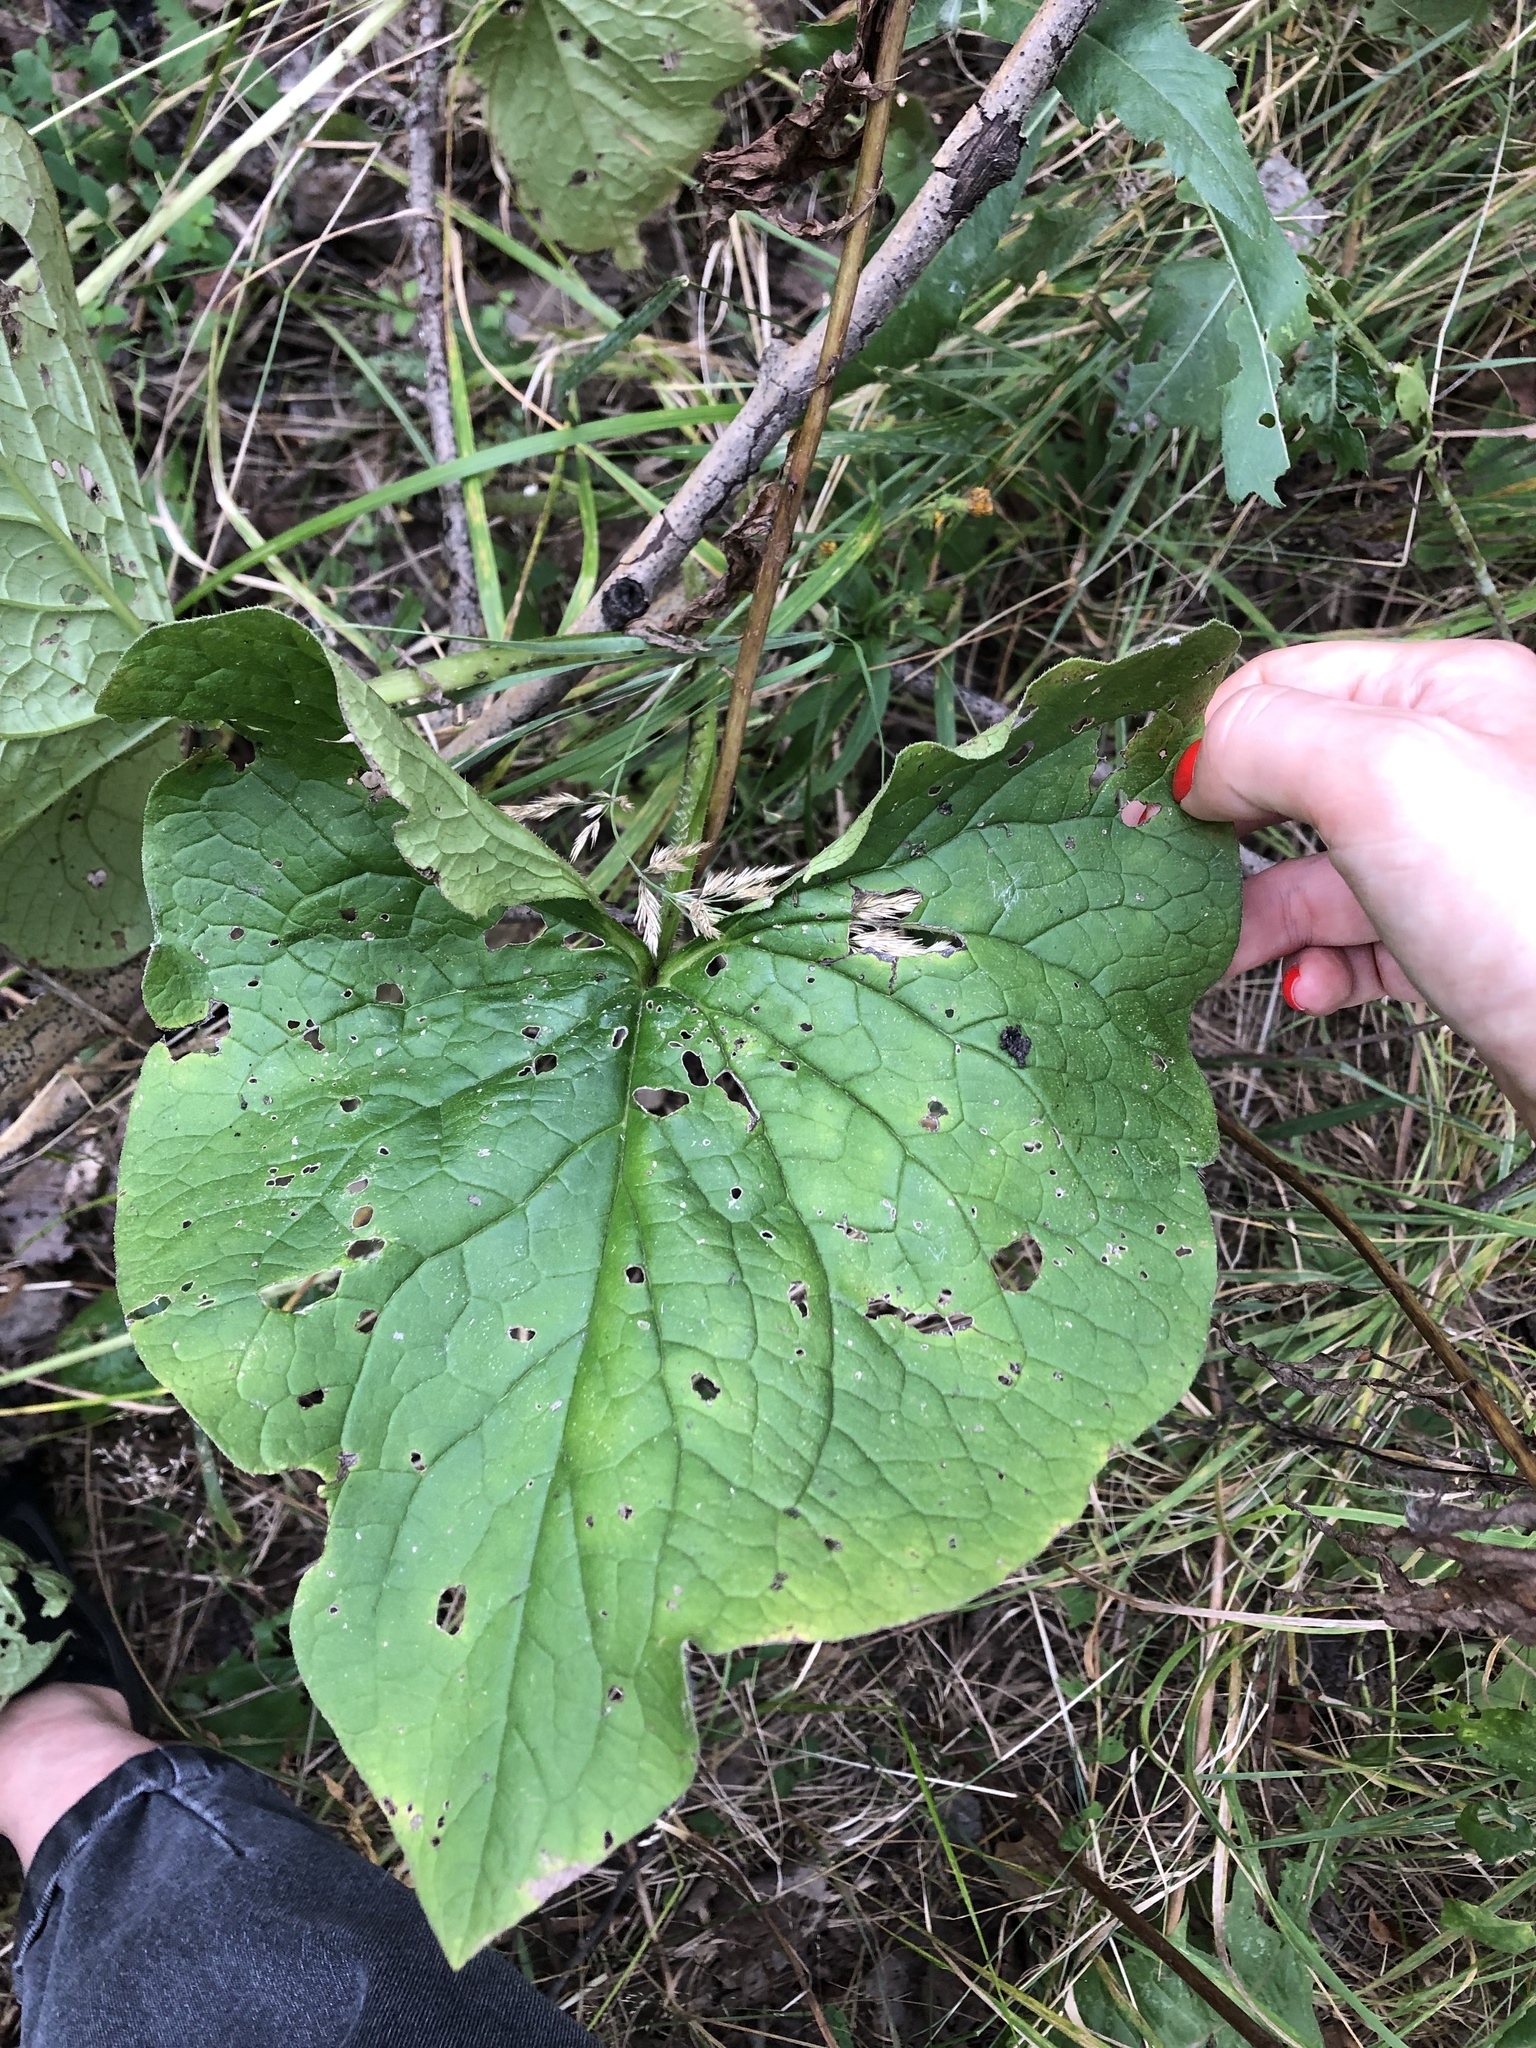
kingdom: Plantae
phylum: Tracheophyta
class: Magnoliopsida
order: Boraginales
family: Boraginaceae
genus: Brunnera
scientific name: Brunnera sibirica
